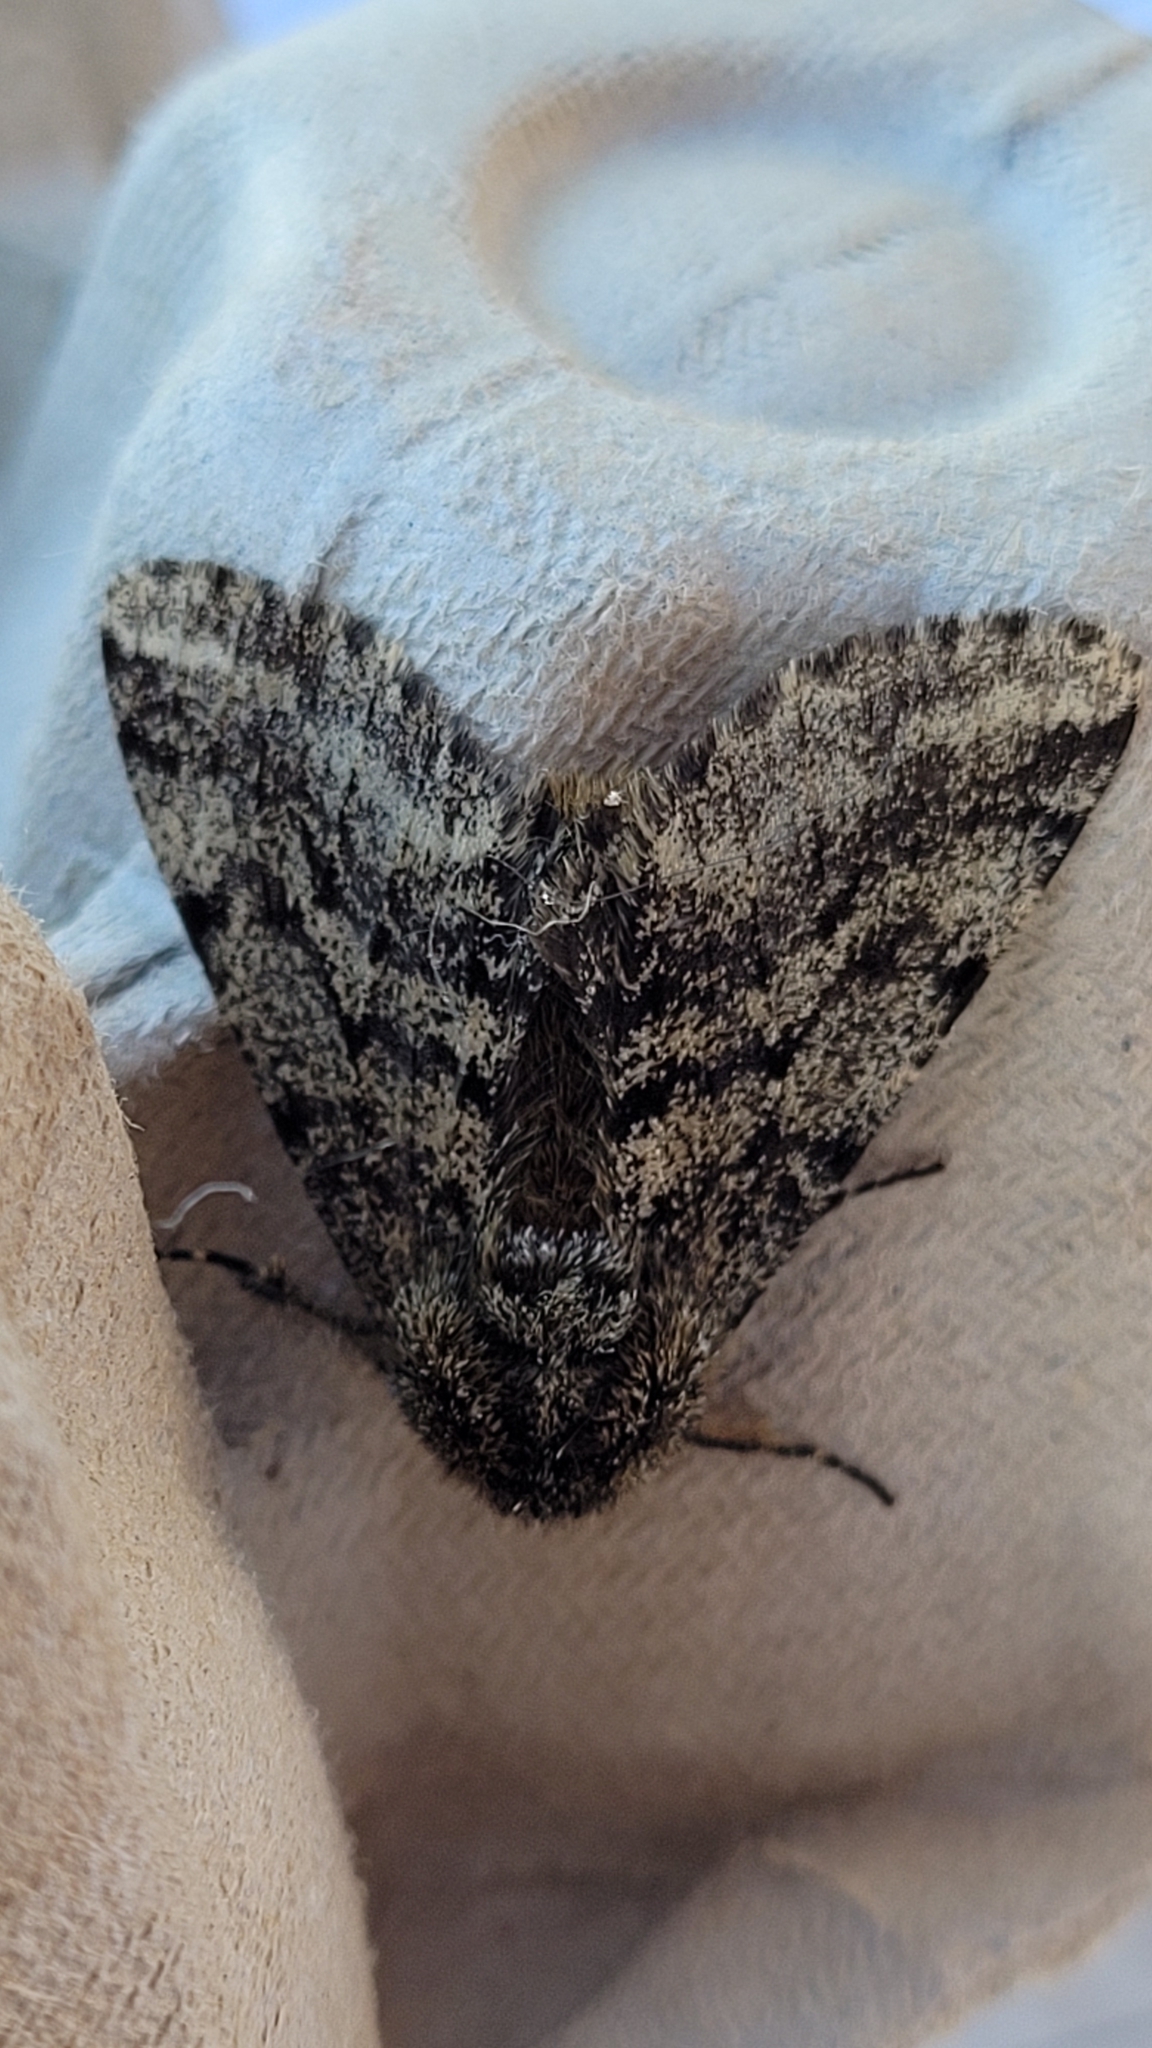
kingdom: Animalia
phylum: Arthropoda
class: Insecta
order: Lepidoptera
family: Geometridae
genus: Lycia
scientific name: Lycia hirtaria
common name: Brindled beauty
